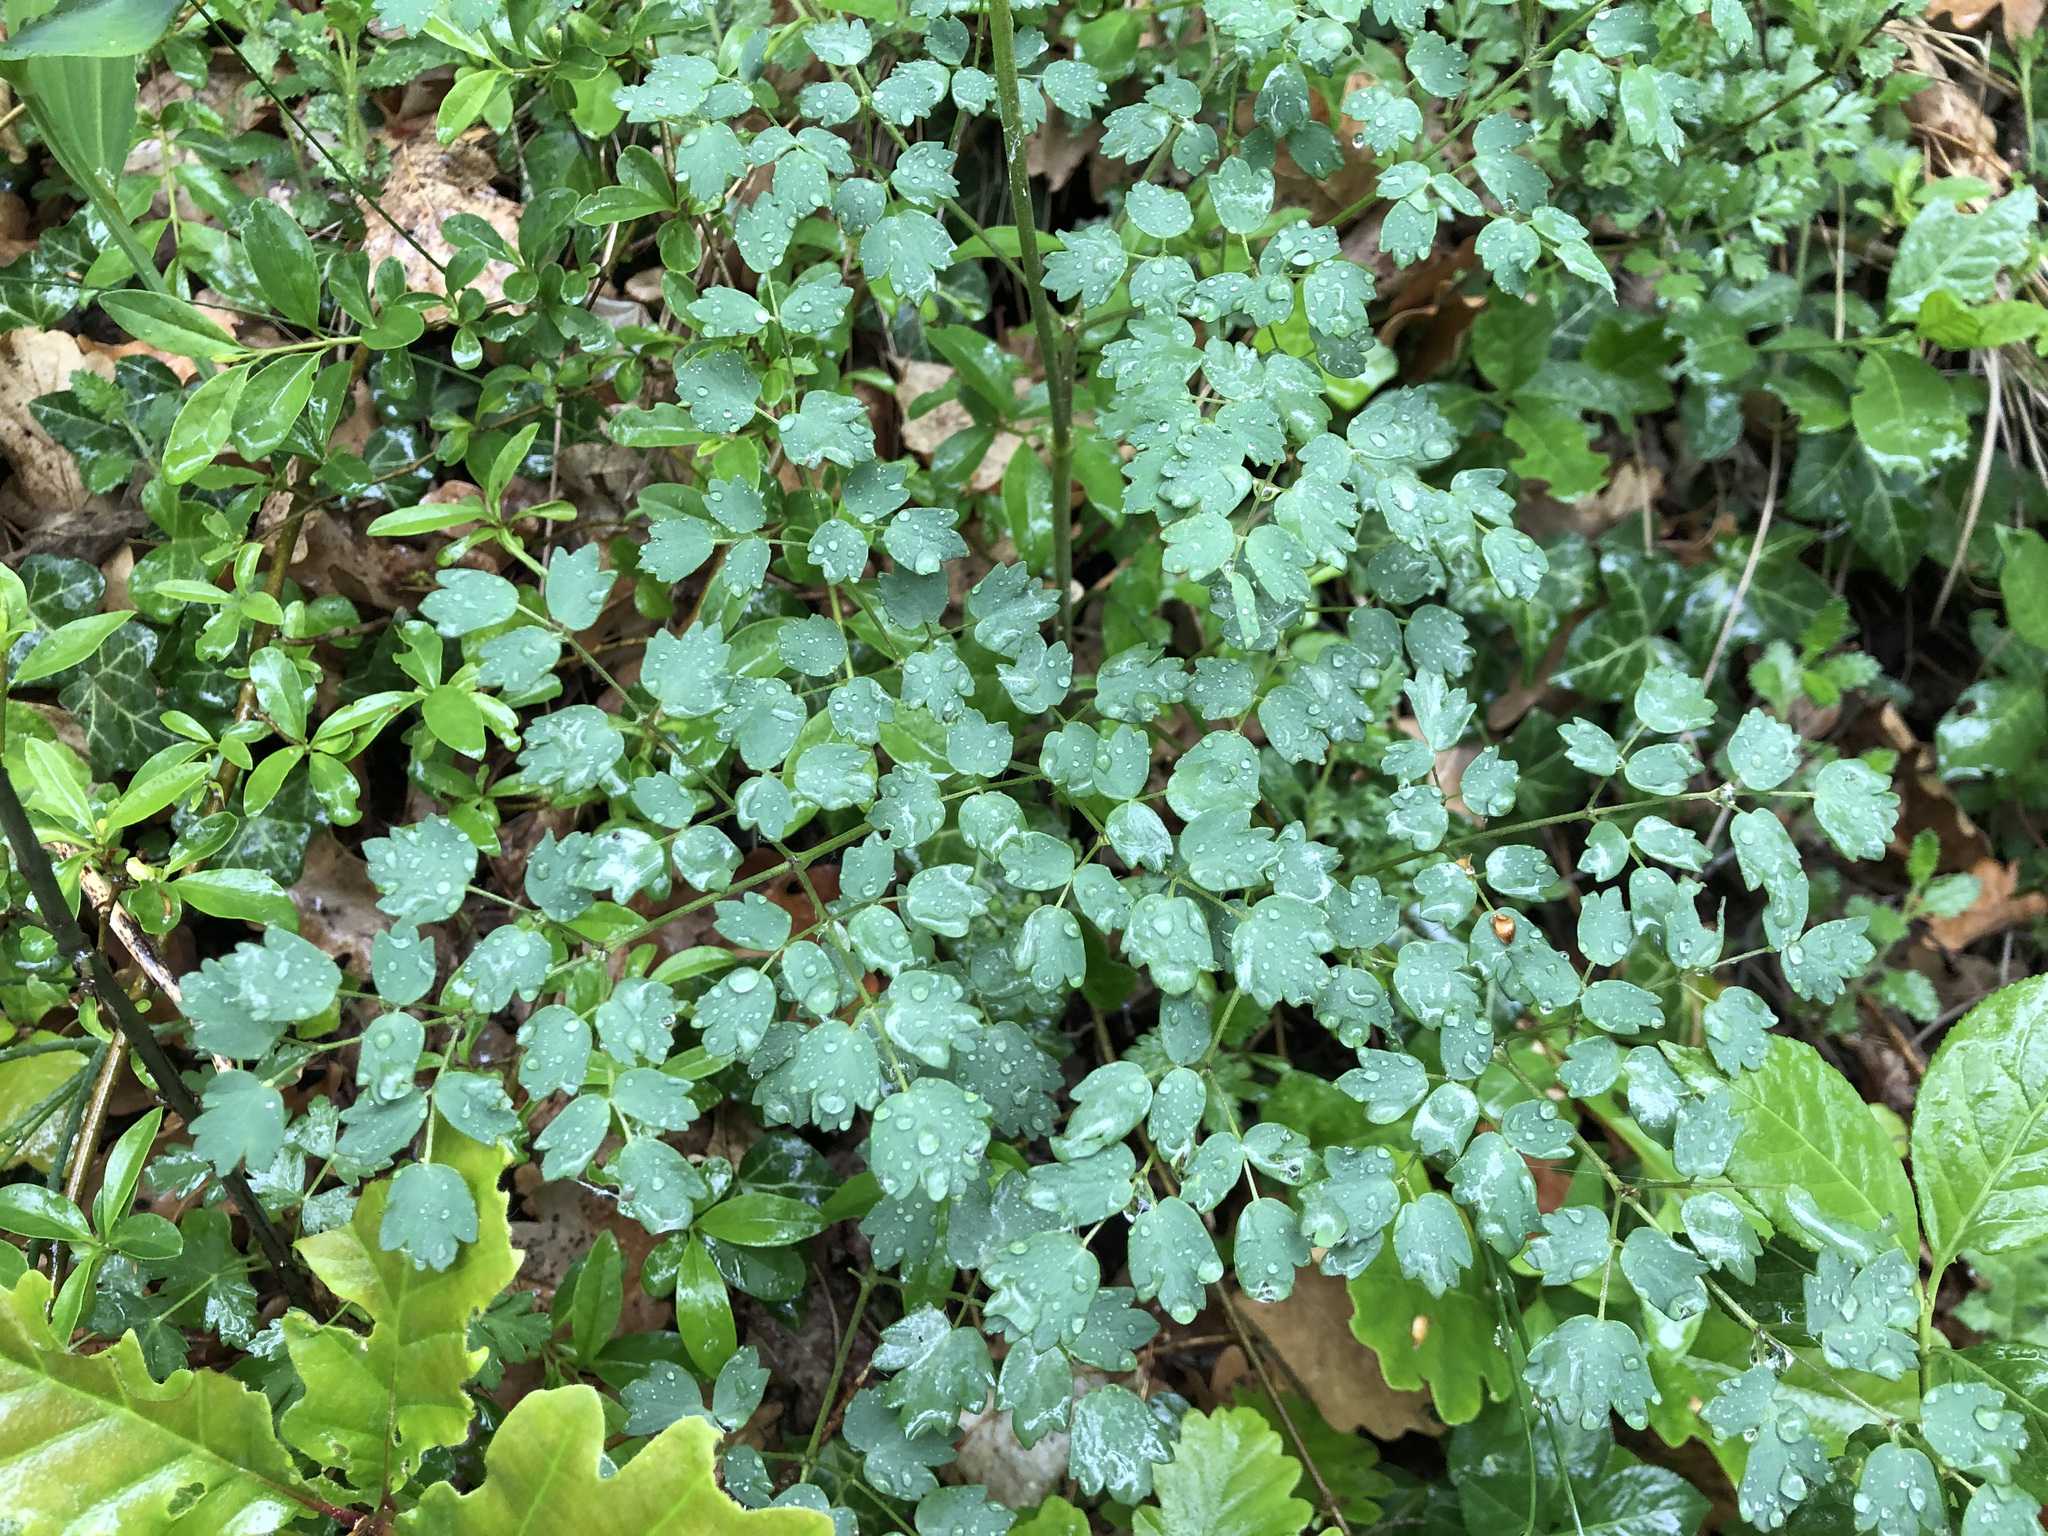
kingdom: Plantae
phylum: Tracheophyta
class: Magnoliopsida
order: Ranunculales
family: Ranunculaceae
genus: Thalictrum
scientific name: Thalictrum minus
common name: Lesser meadow-rue
